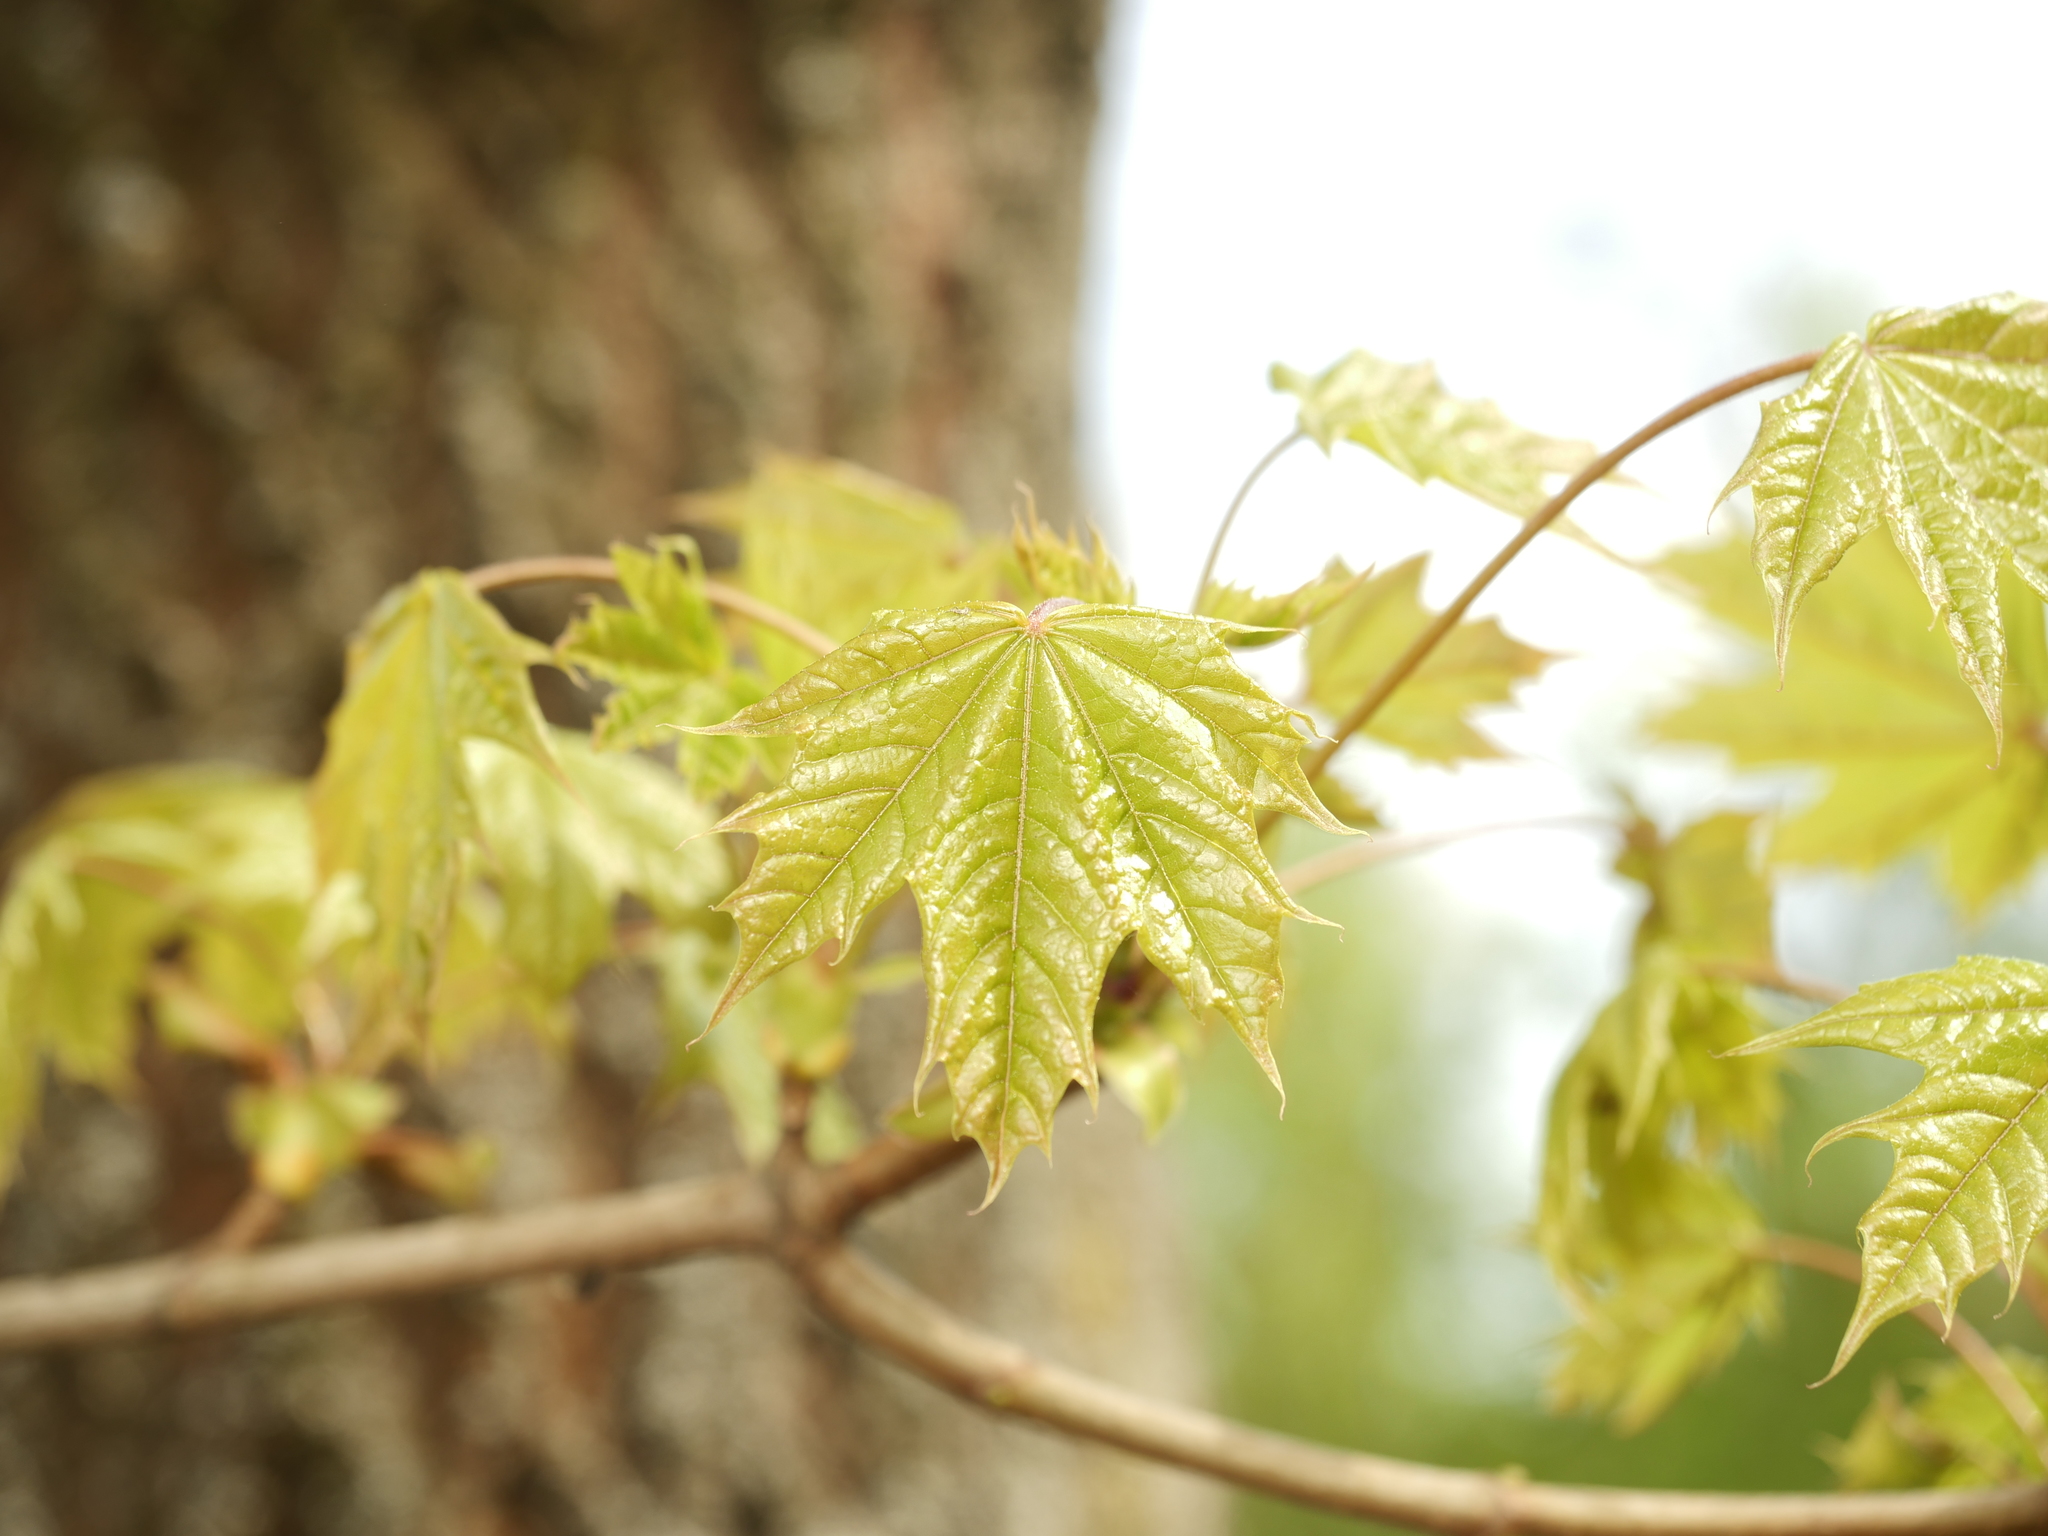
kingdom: Plantae
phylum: Tracheophyta
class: Magnoliopsida
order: Sapindales
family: Sapindaceae
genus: Acer
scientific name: Acer platanoides
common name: Norway maple
